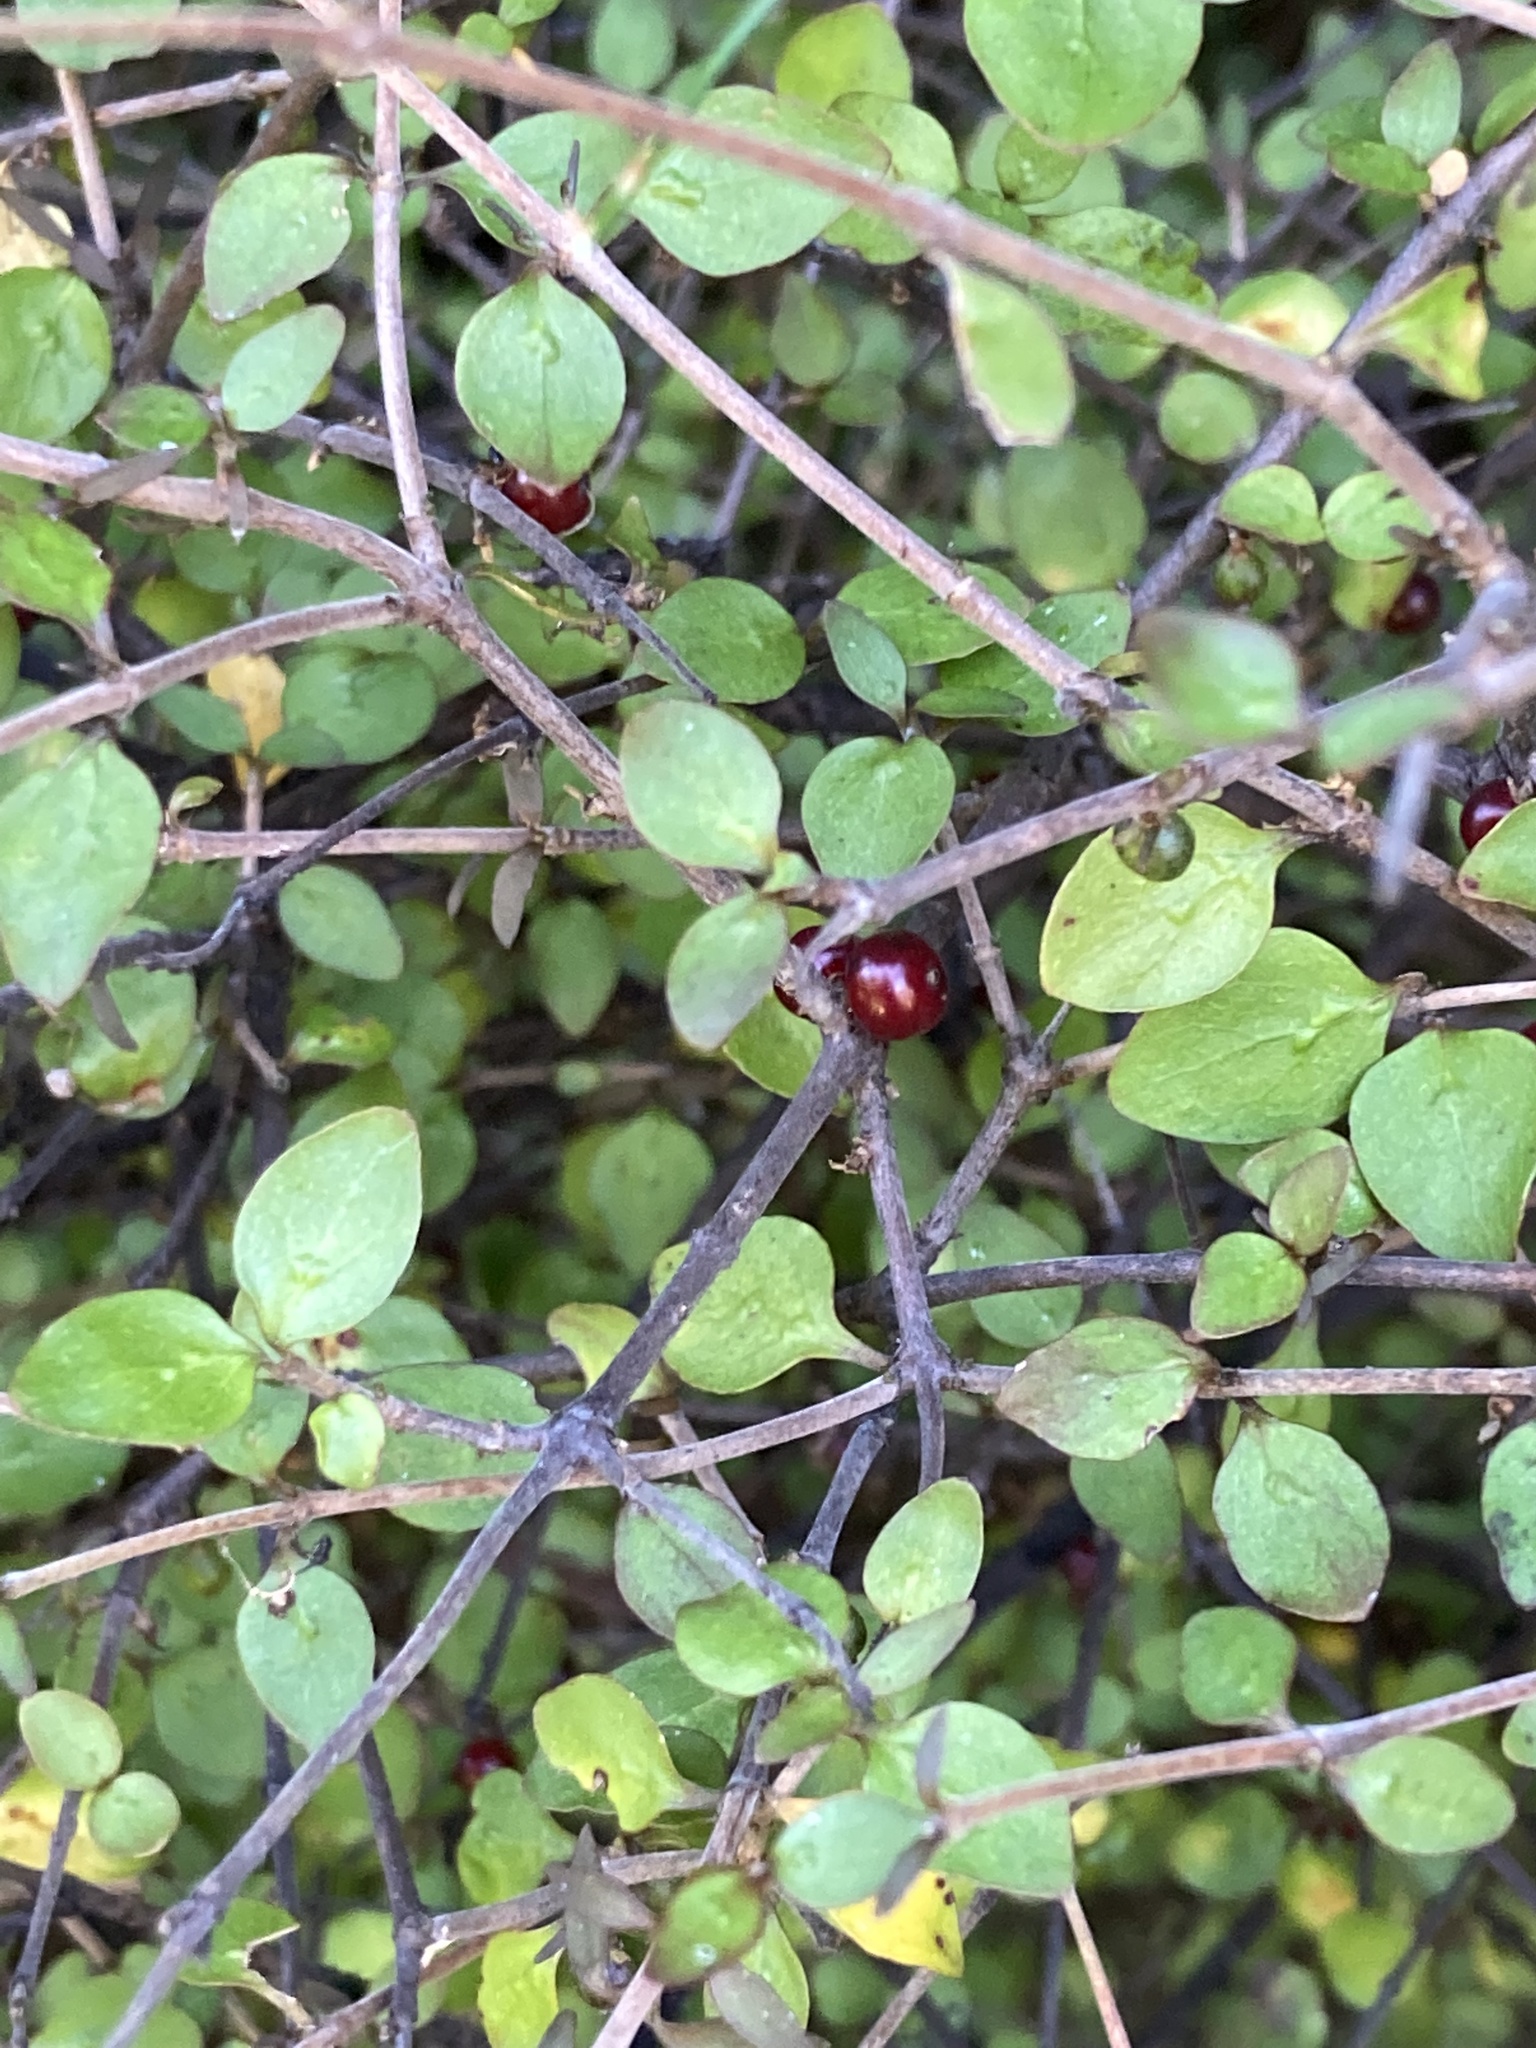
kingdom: Plantae
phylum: Tracheophyta
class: Magnoliopsida
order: Gentianales
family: Rubiaceae
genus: Coprosma
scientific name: Coprosma rhamnoides
